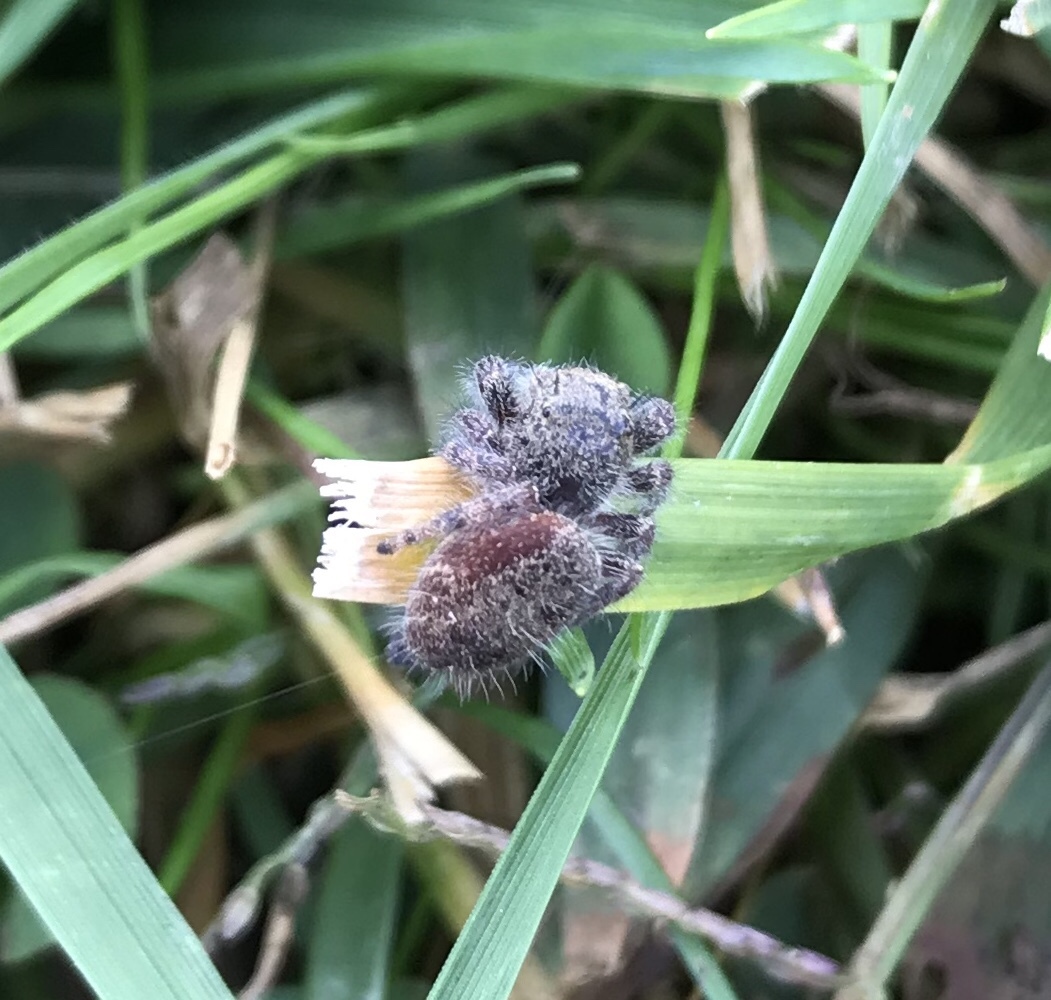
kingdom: Animalia
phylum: Arthropoda
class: Arachnida
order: Araneae
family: Salticidae
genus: Phidippus
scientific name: Phidippus princeps
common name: Grayish jumping spider
